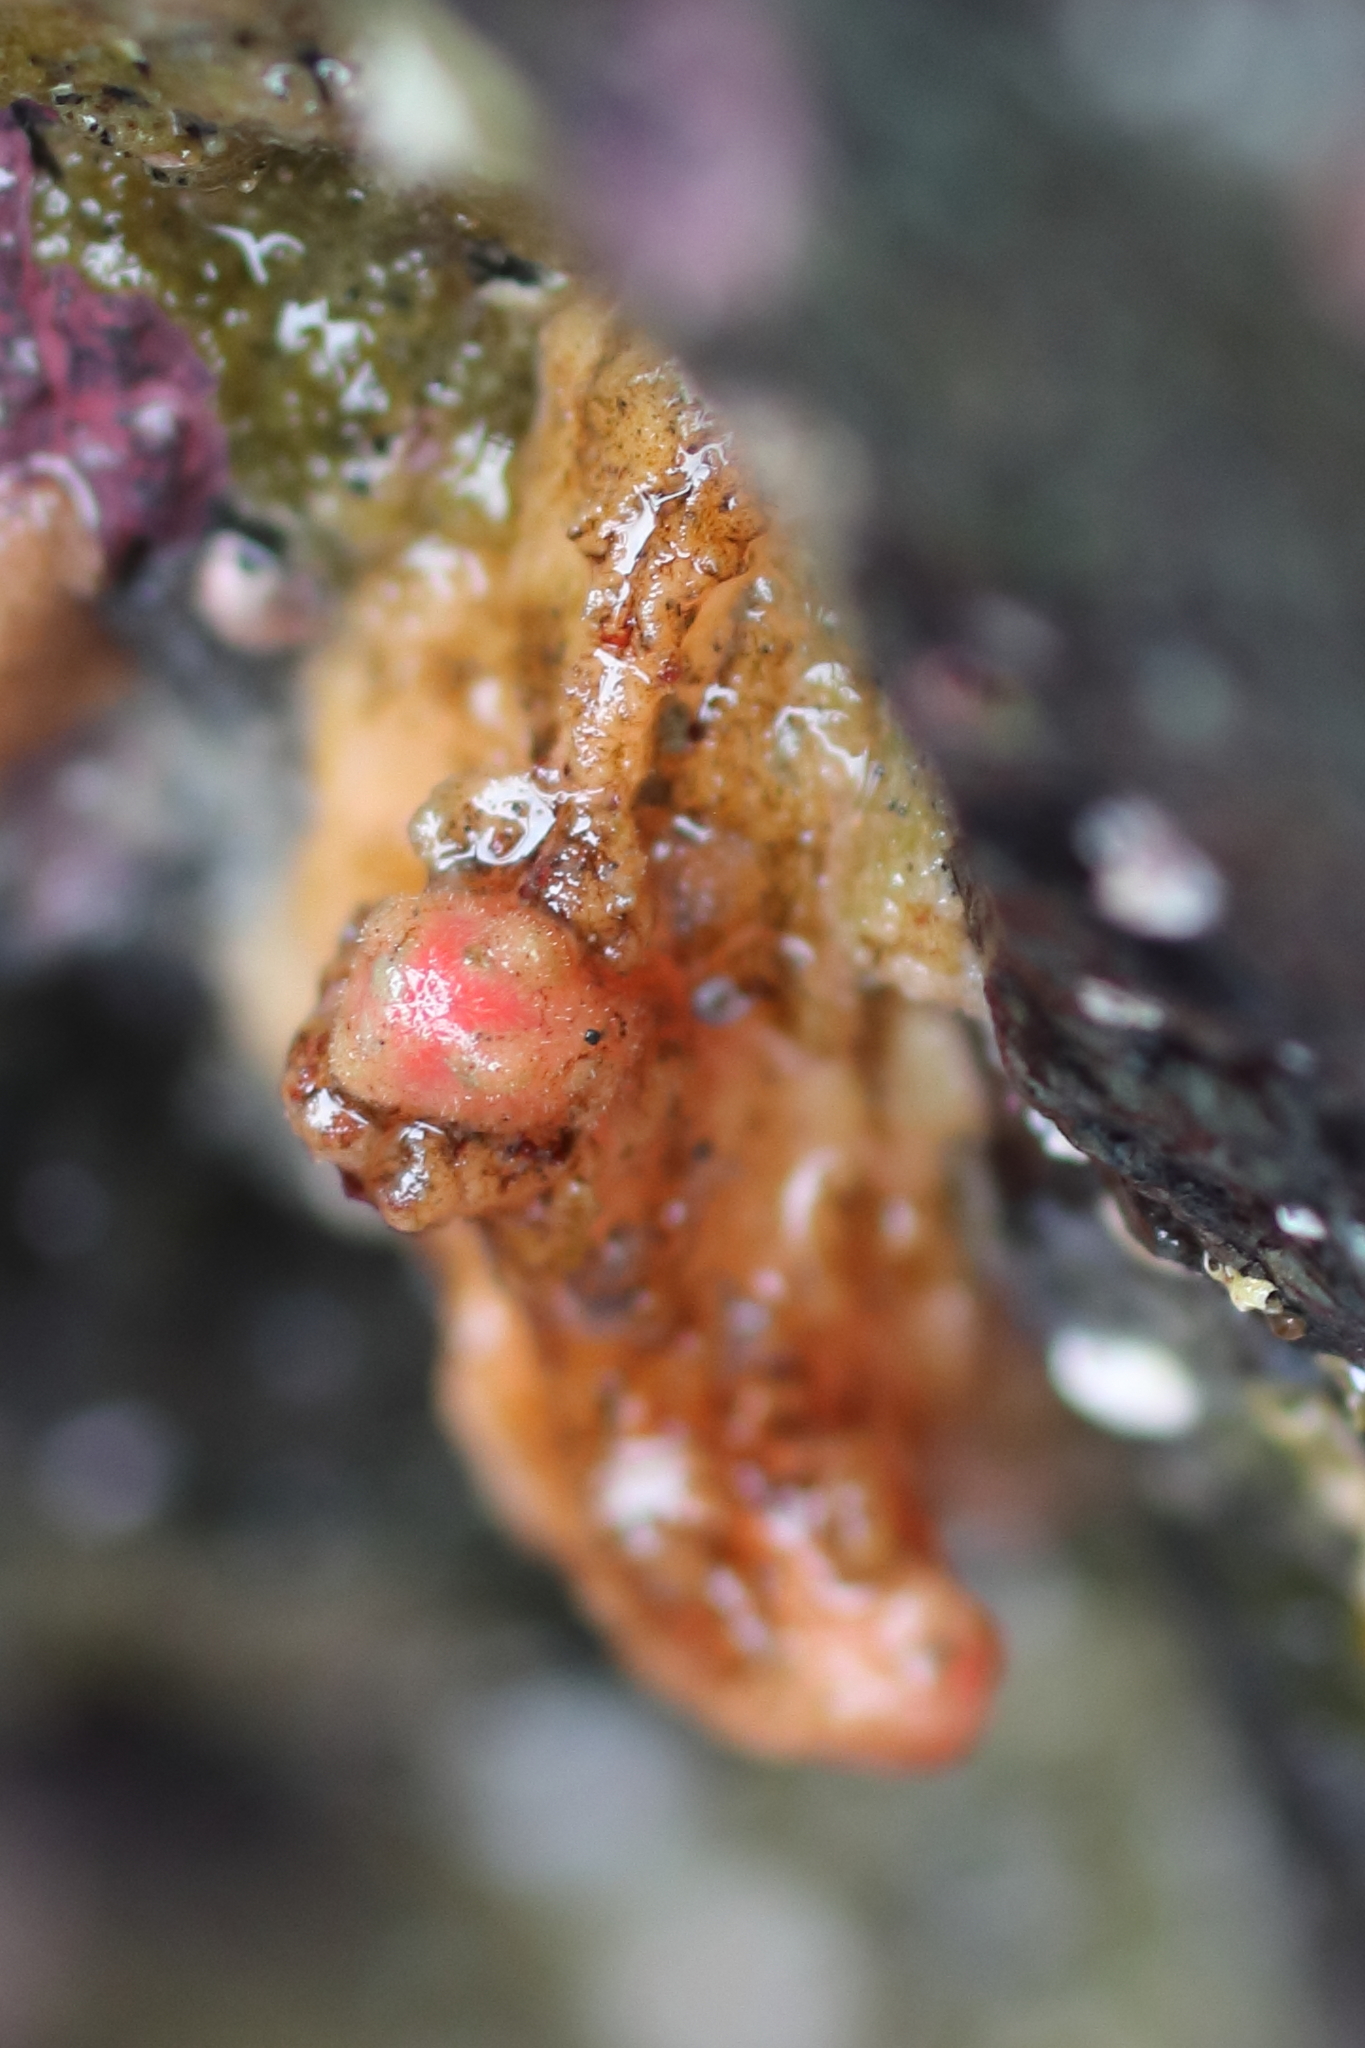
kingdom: Animalia
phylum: Chordata
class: Ascidiacea
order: Stolidobranchia
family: Pyuridae
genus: Pyura
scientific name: Pyura haustor
